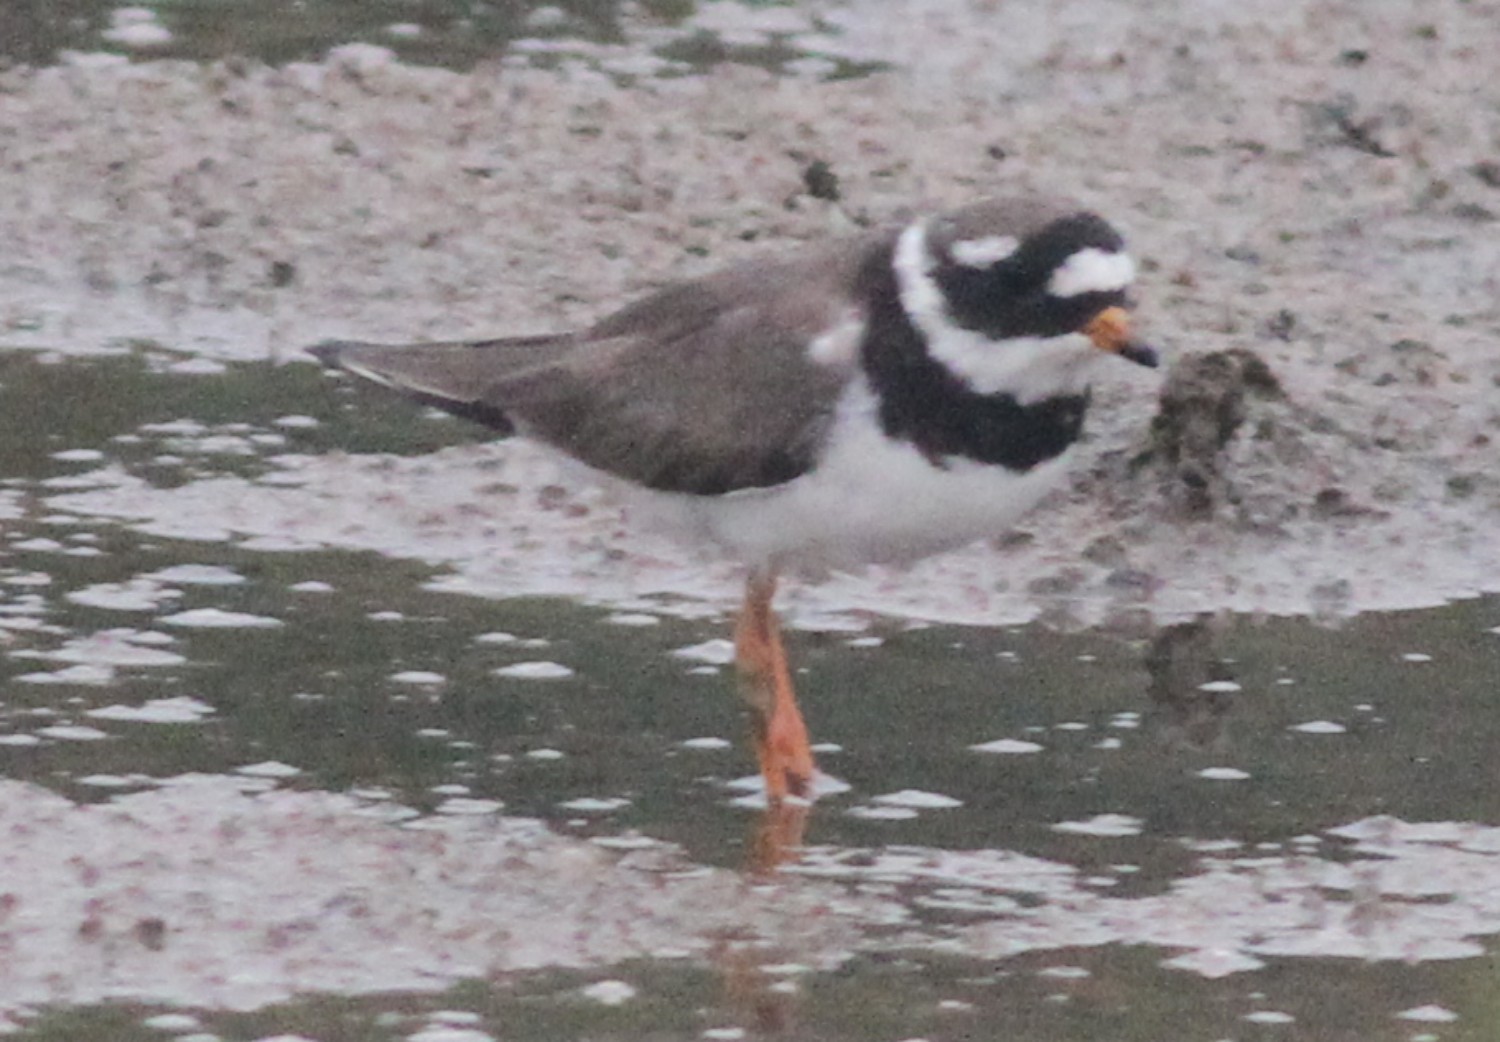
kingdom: Animalia
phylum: Chordata
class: Aves
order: Charadriiformes
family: Charadriidae
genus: Charadrius
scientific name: Charadrius hiaticula
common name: Common ringed plover
